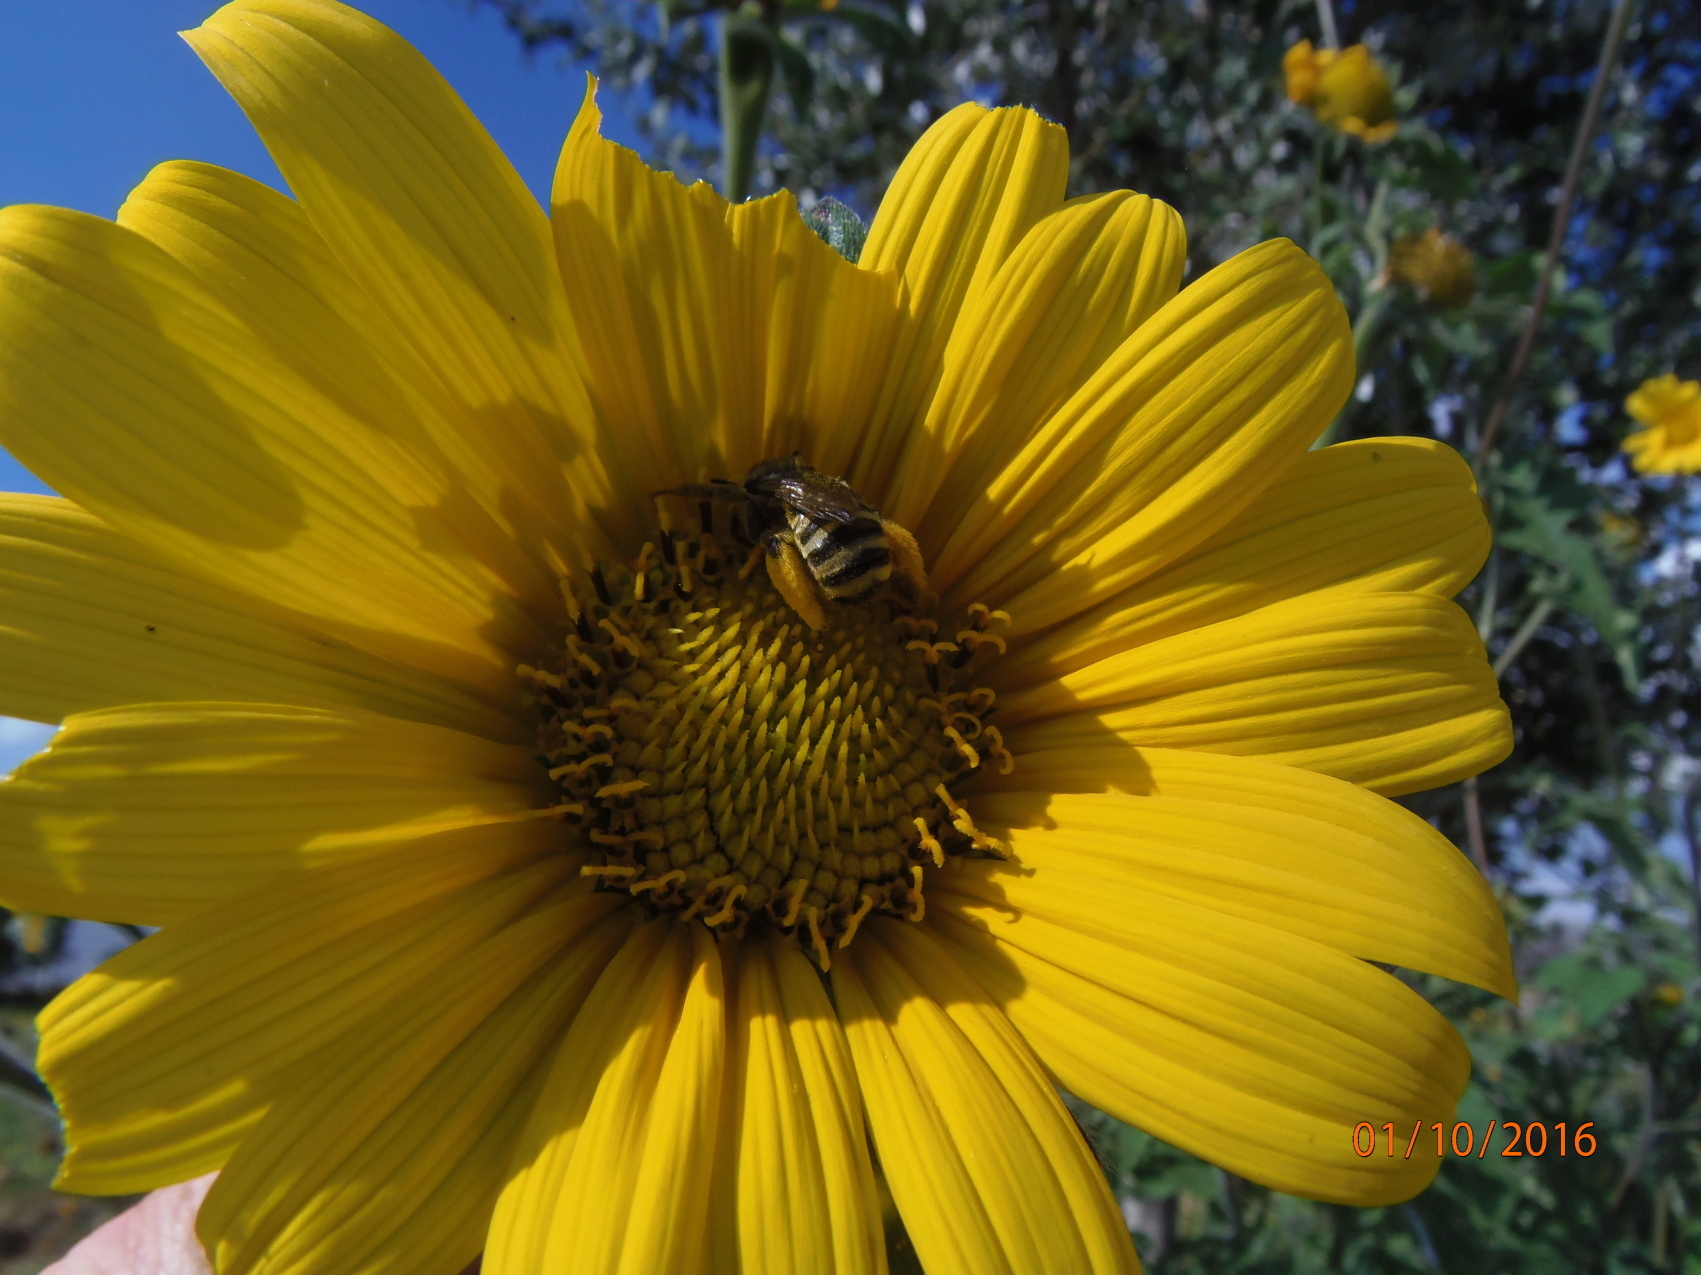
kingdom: Animalia
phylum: Arthropoda
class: Insecta
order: Hymenoptera
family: Apidae
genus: Diadasia
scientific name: Diadasia rinconis
